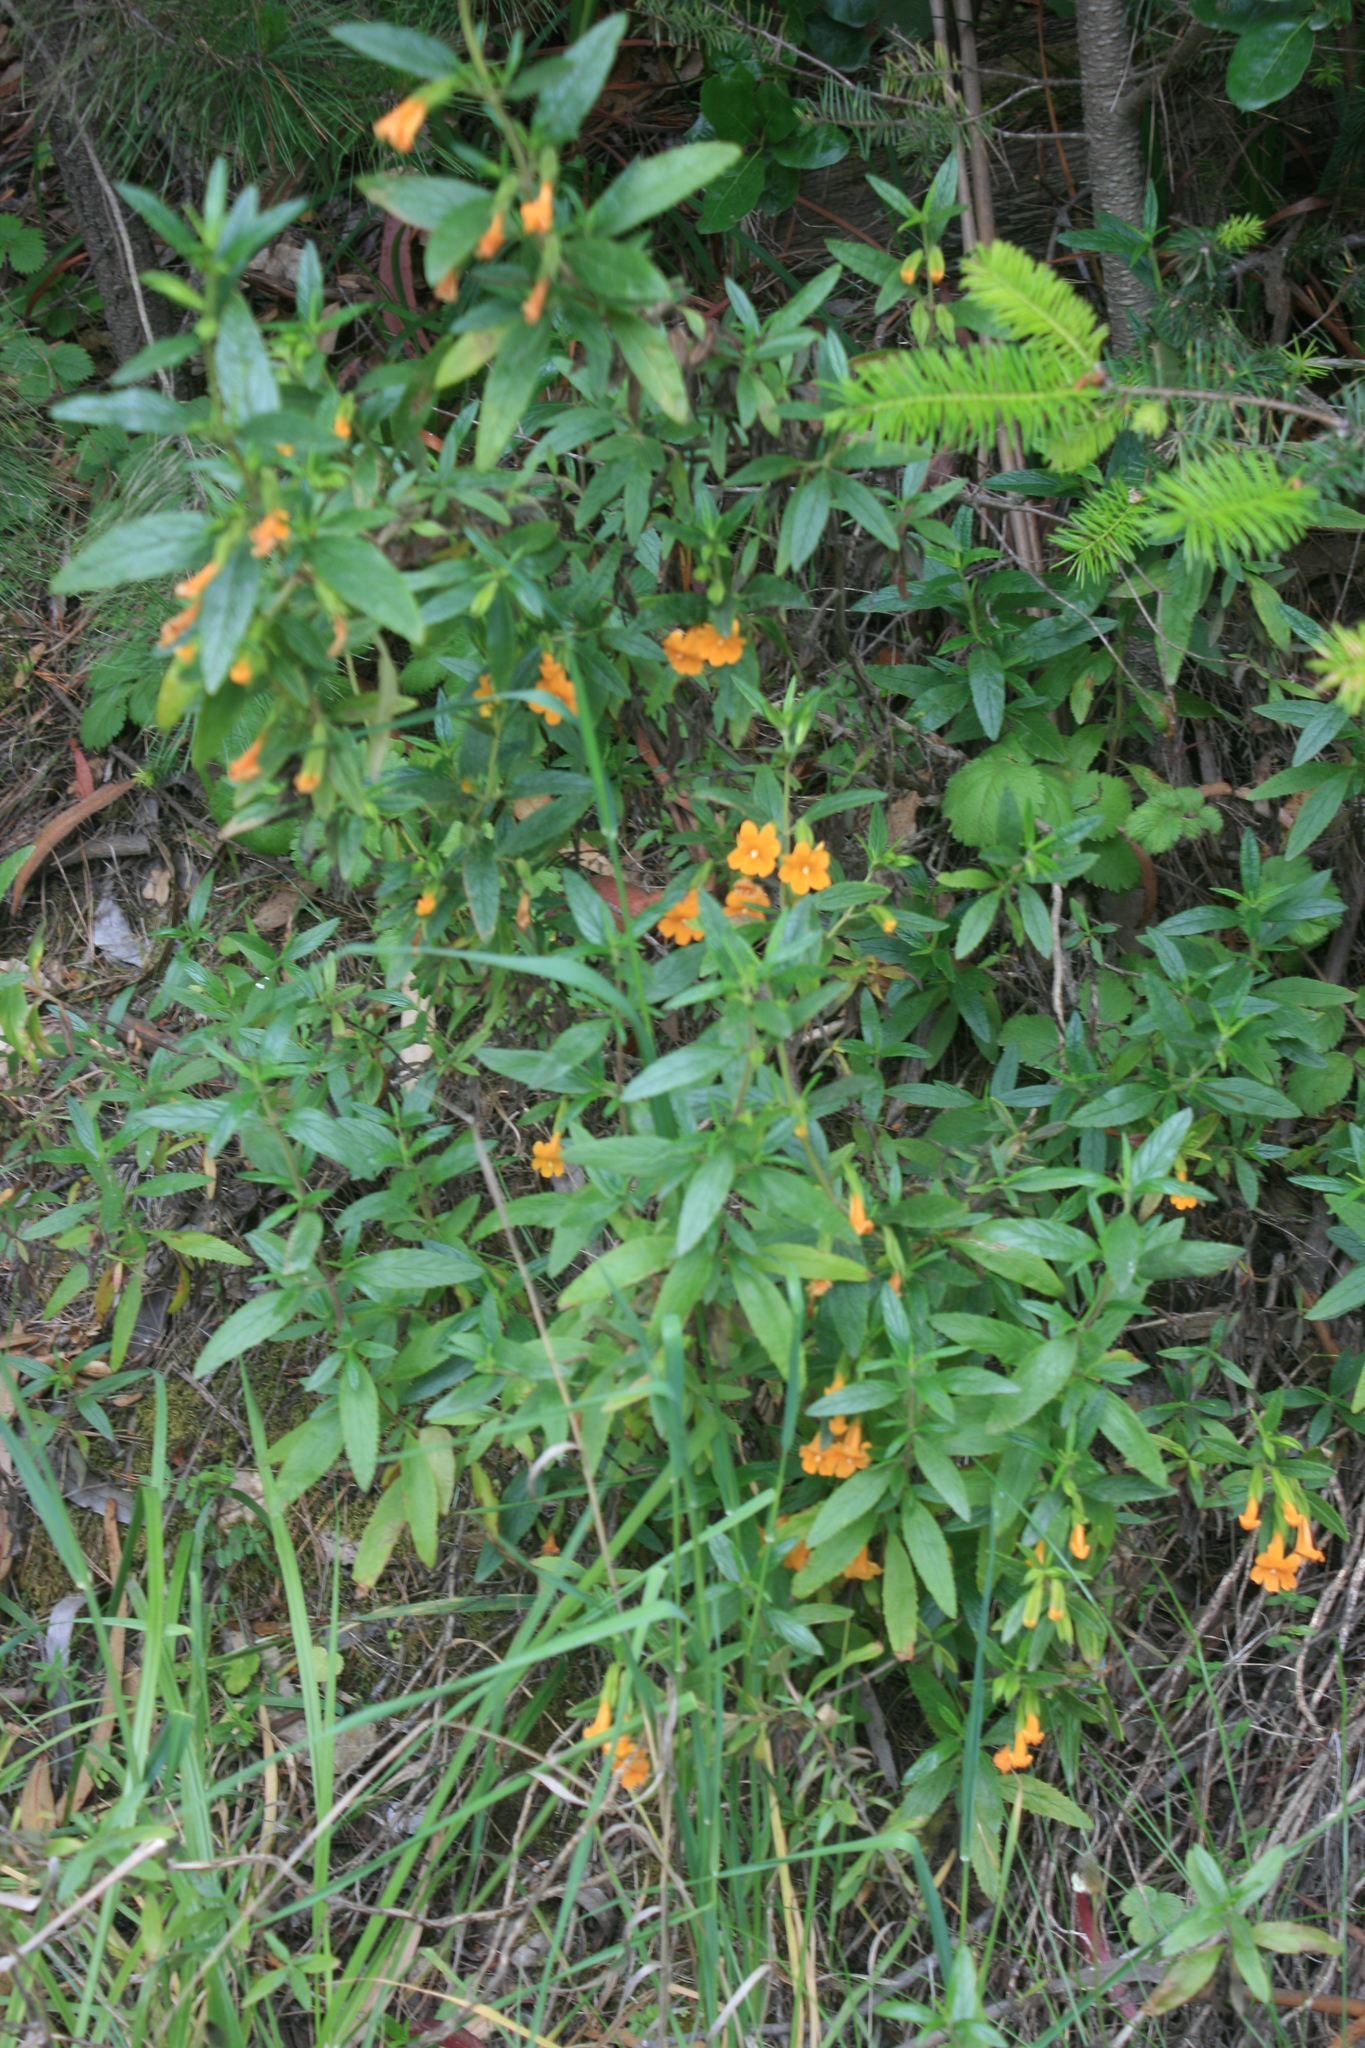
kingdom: Plantae
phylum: Tracheophyta
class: Magnoliopsida
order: Lamiales
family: Phrymaceae
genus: Diplacus
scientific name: Diplacus aurantiacus
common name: Bush monkey-flower
